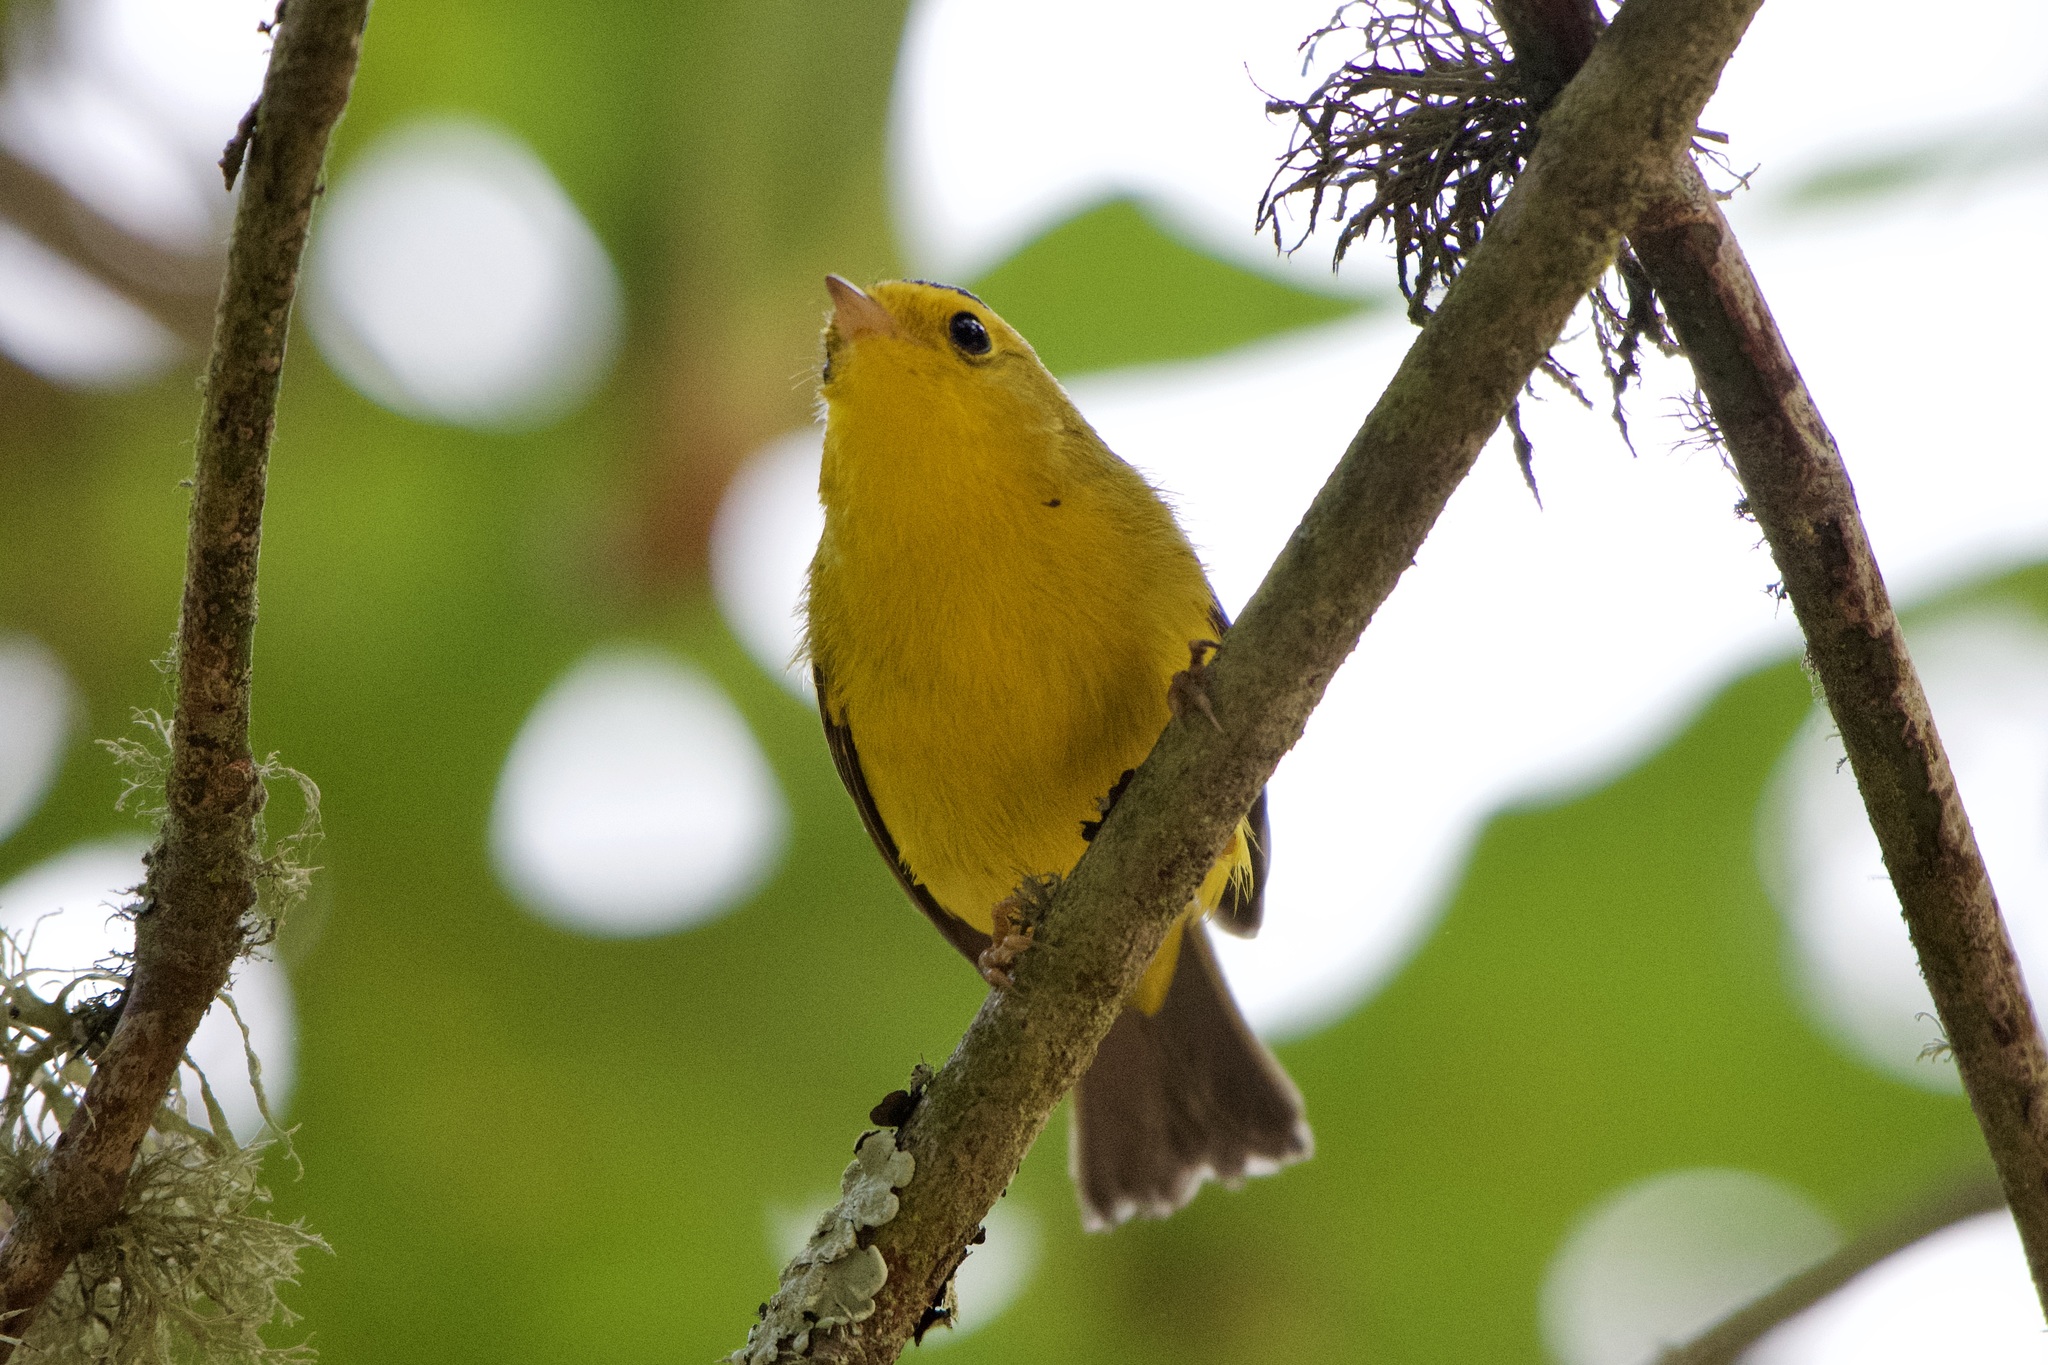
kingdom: Animalia
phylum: Chordata
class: Aves
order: Passeriformes
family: Parulidae
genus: Cardellina
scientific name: Cardellina pusilla
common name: Wilson's warbler
